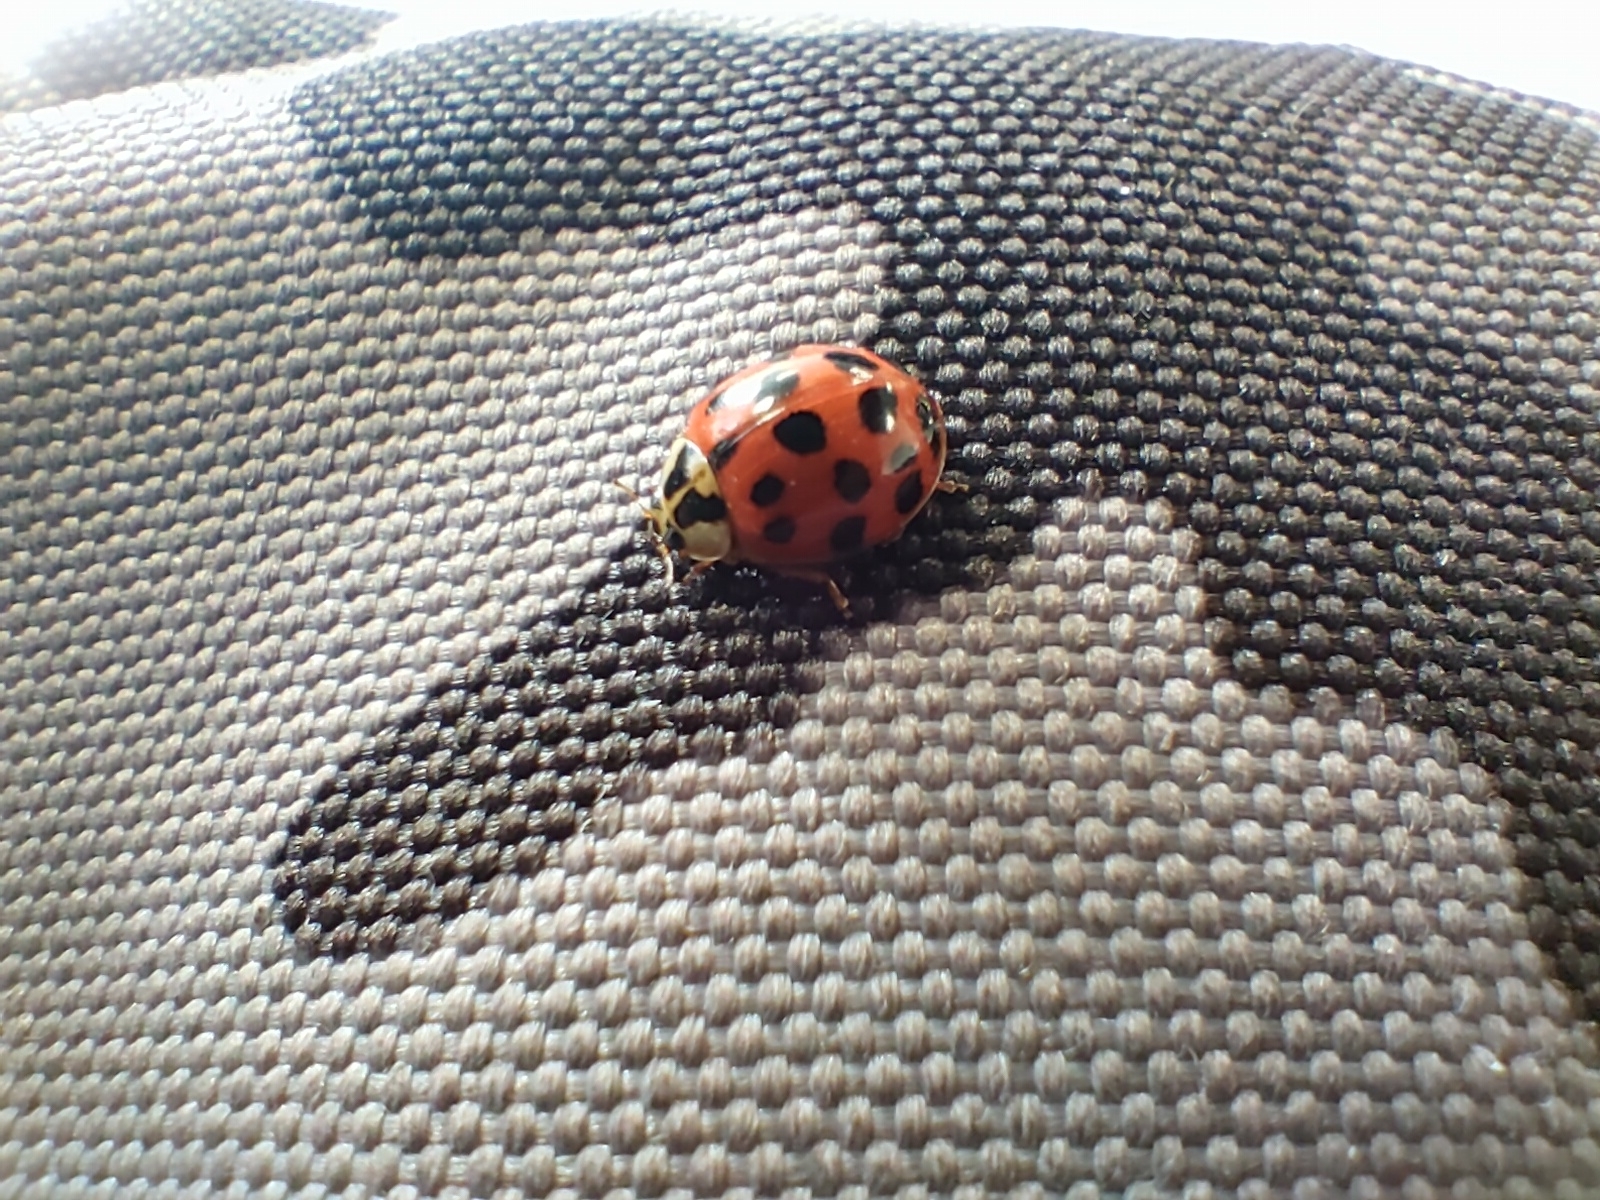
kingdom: Animalia
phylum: Arthropoda
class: Insecta
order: Coleoptera
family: Coccinellidae
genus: Harmonia
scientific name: Harmonia axyridis
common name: Harlequin ladybird
